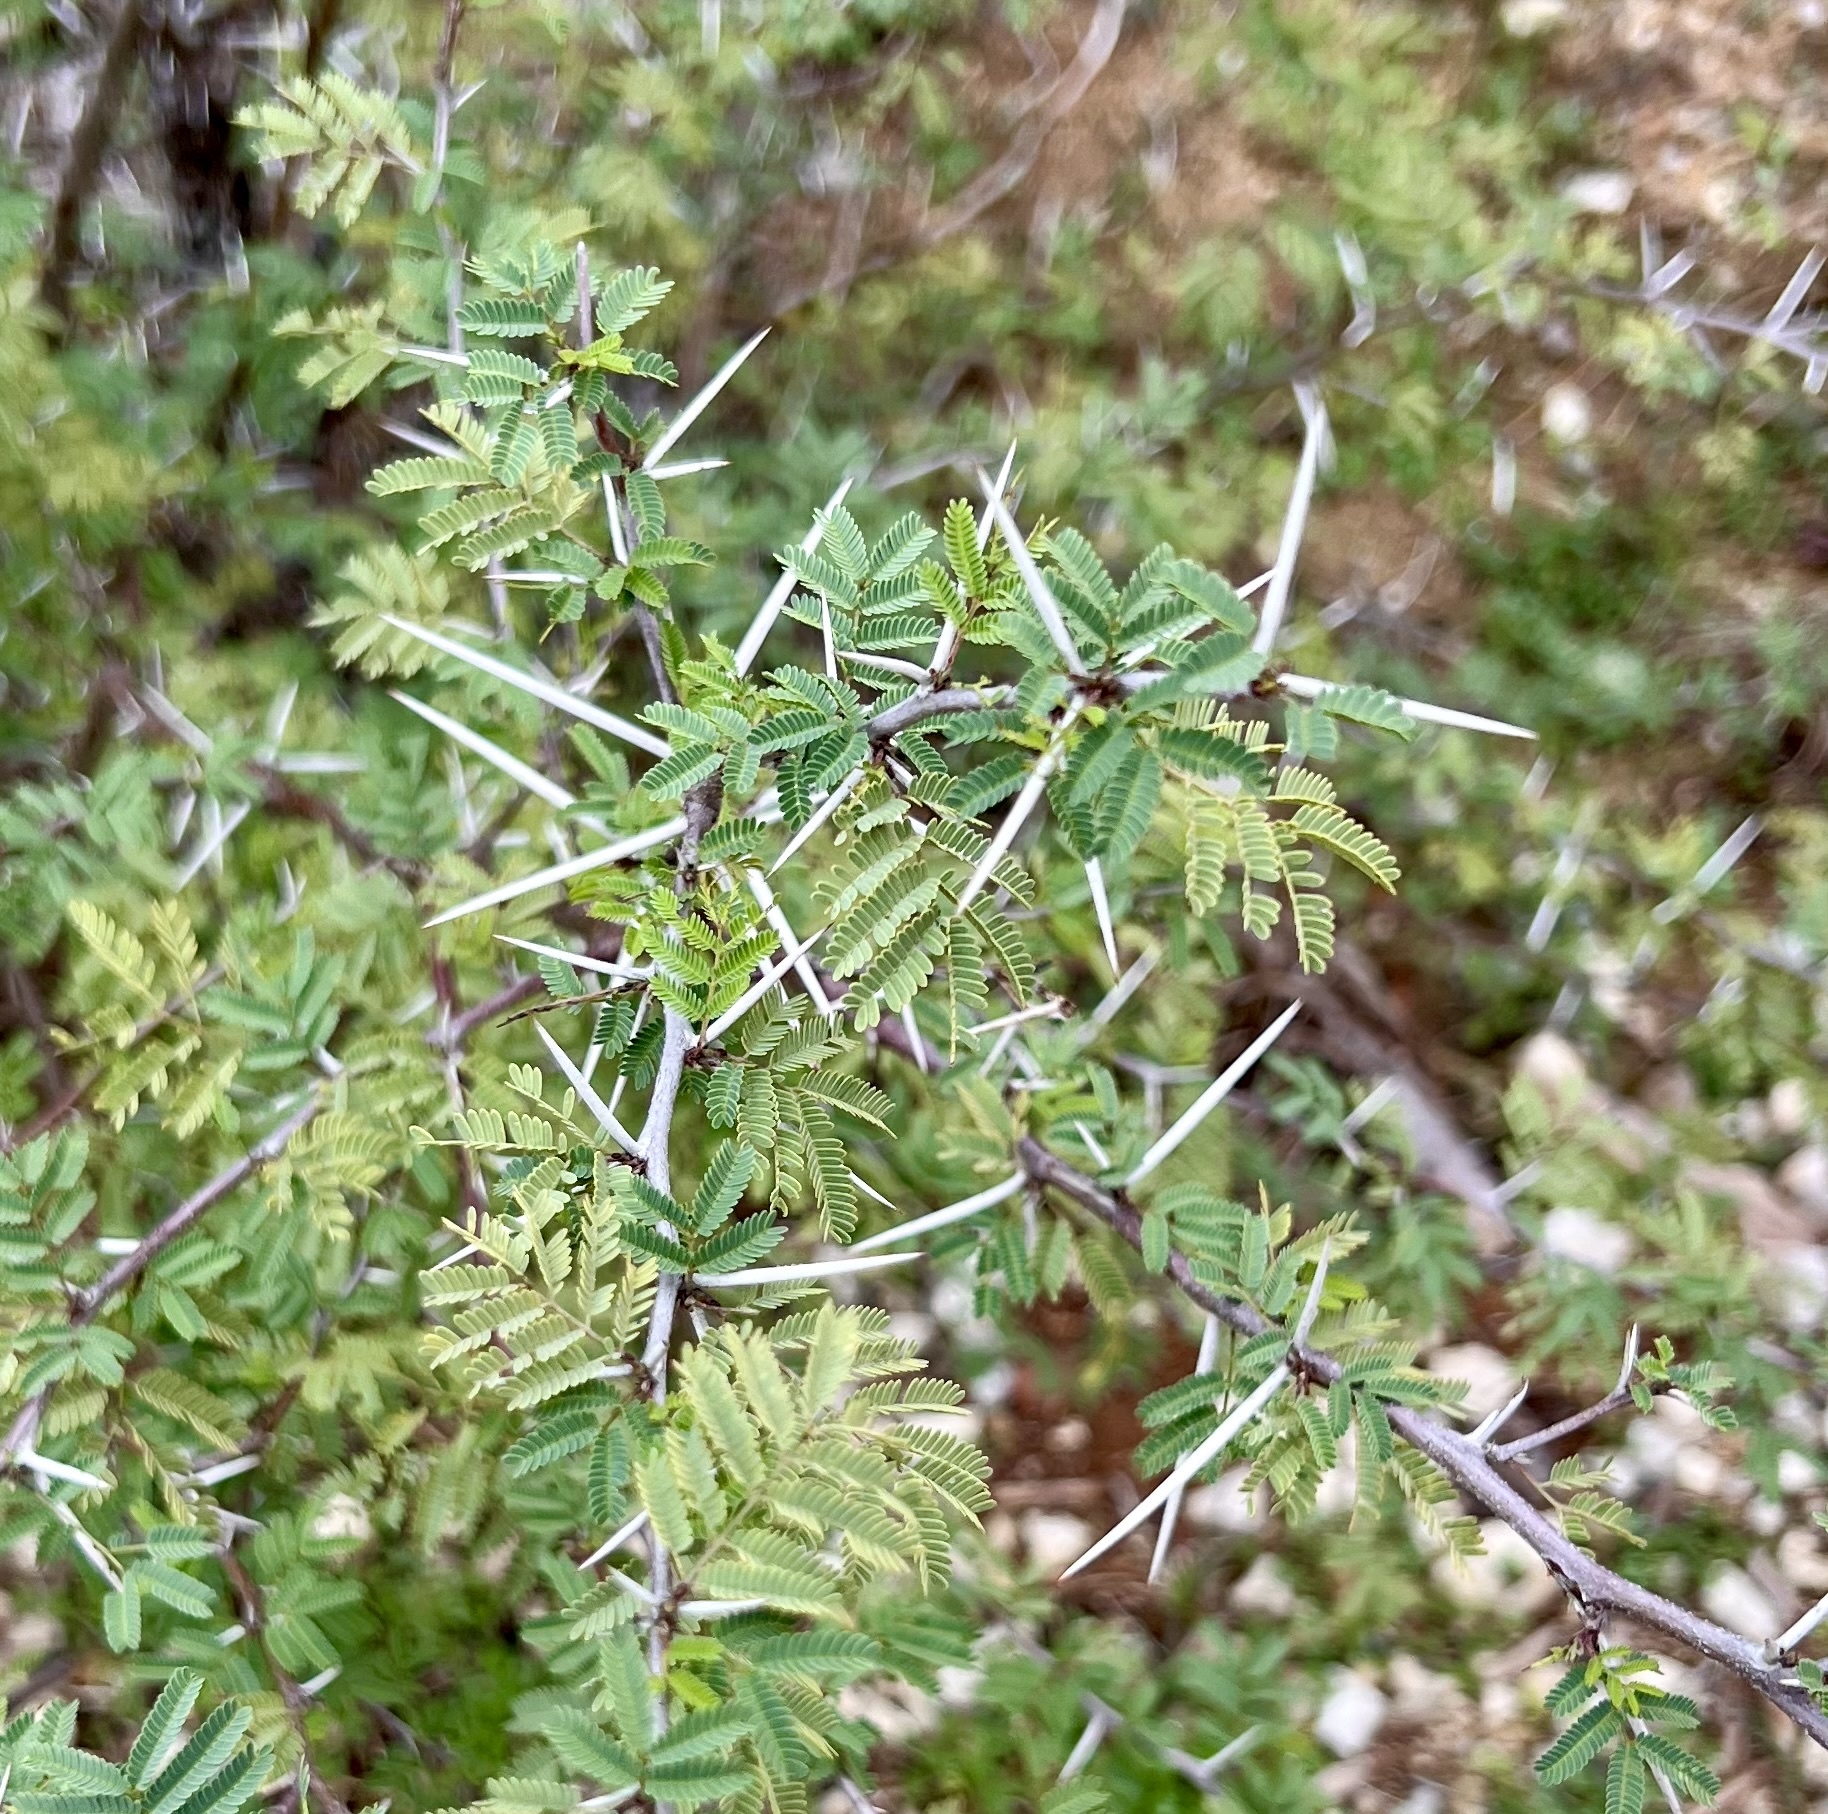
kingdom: Plantae
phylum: Tracheophyta
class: Magnoliopsida
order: Fabales
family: Fabaceae
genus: Vachellia
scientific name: Vachellia farnesiana
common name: Sweet acacia
